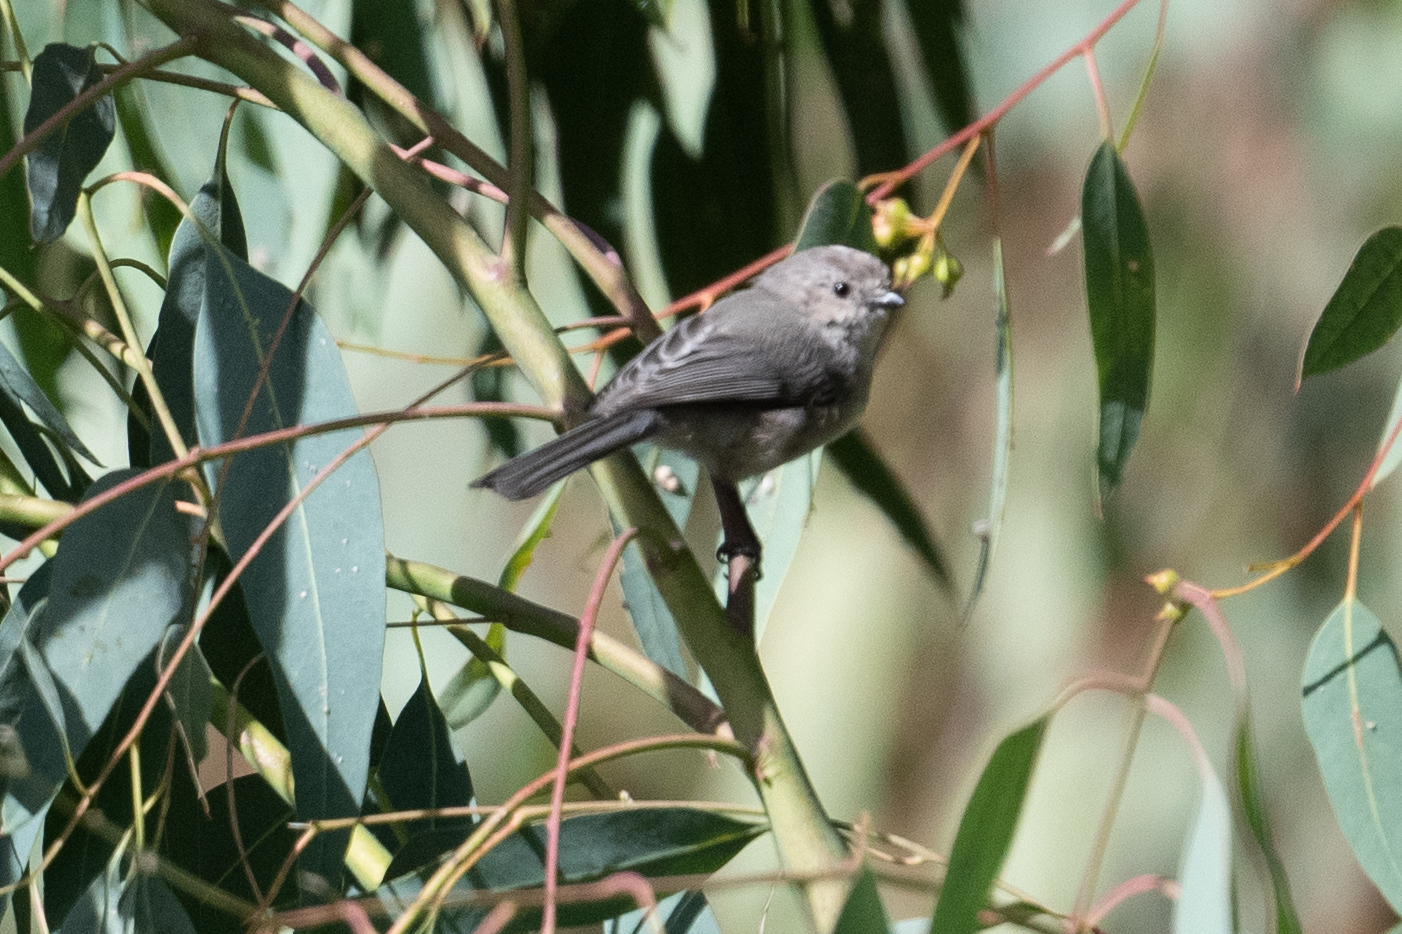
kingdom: Animalia
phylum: Chordata
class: Aves
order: Passeriformes
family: Aegithalidae
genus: Psaltriparus
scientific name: Psaltriparus minimus
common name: American bushtit
